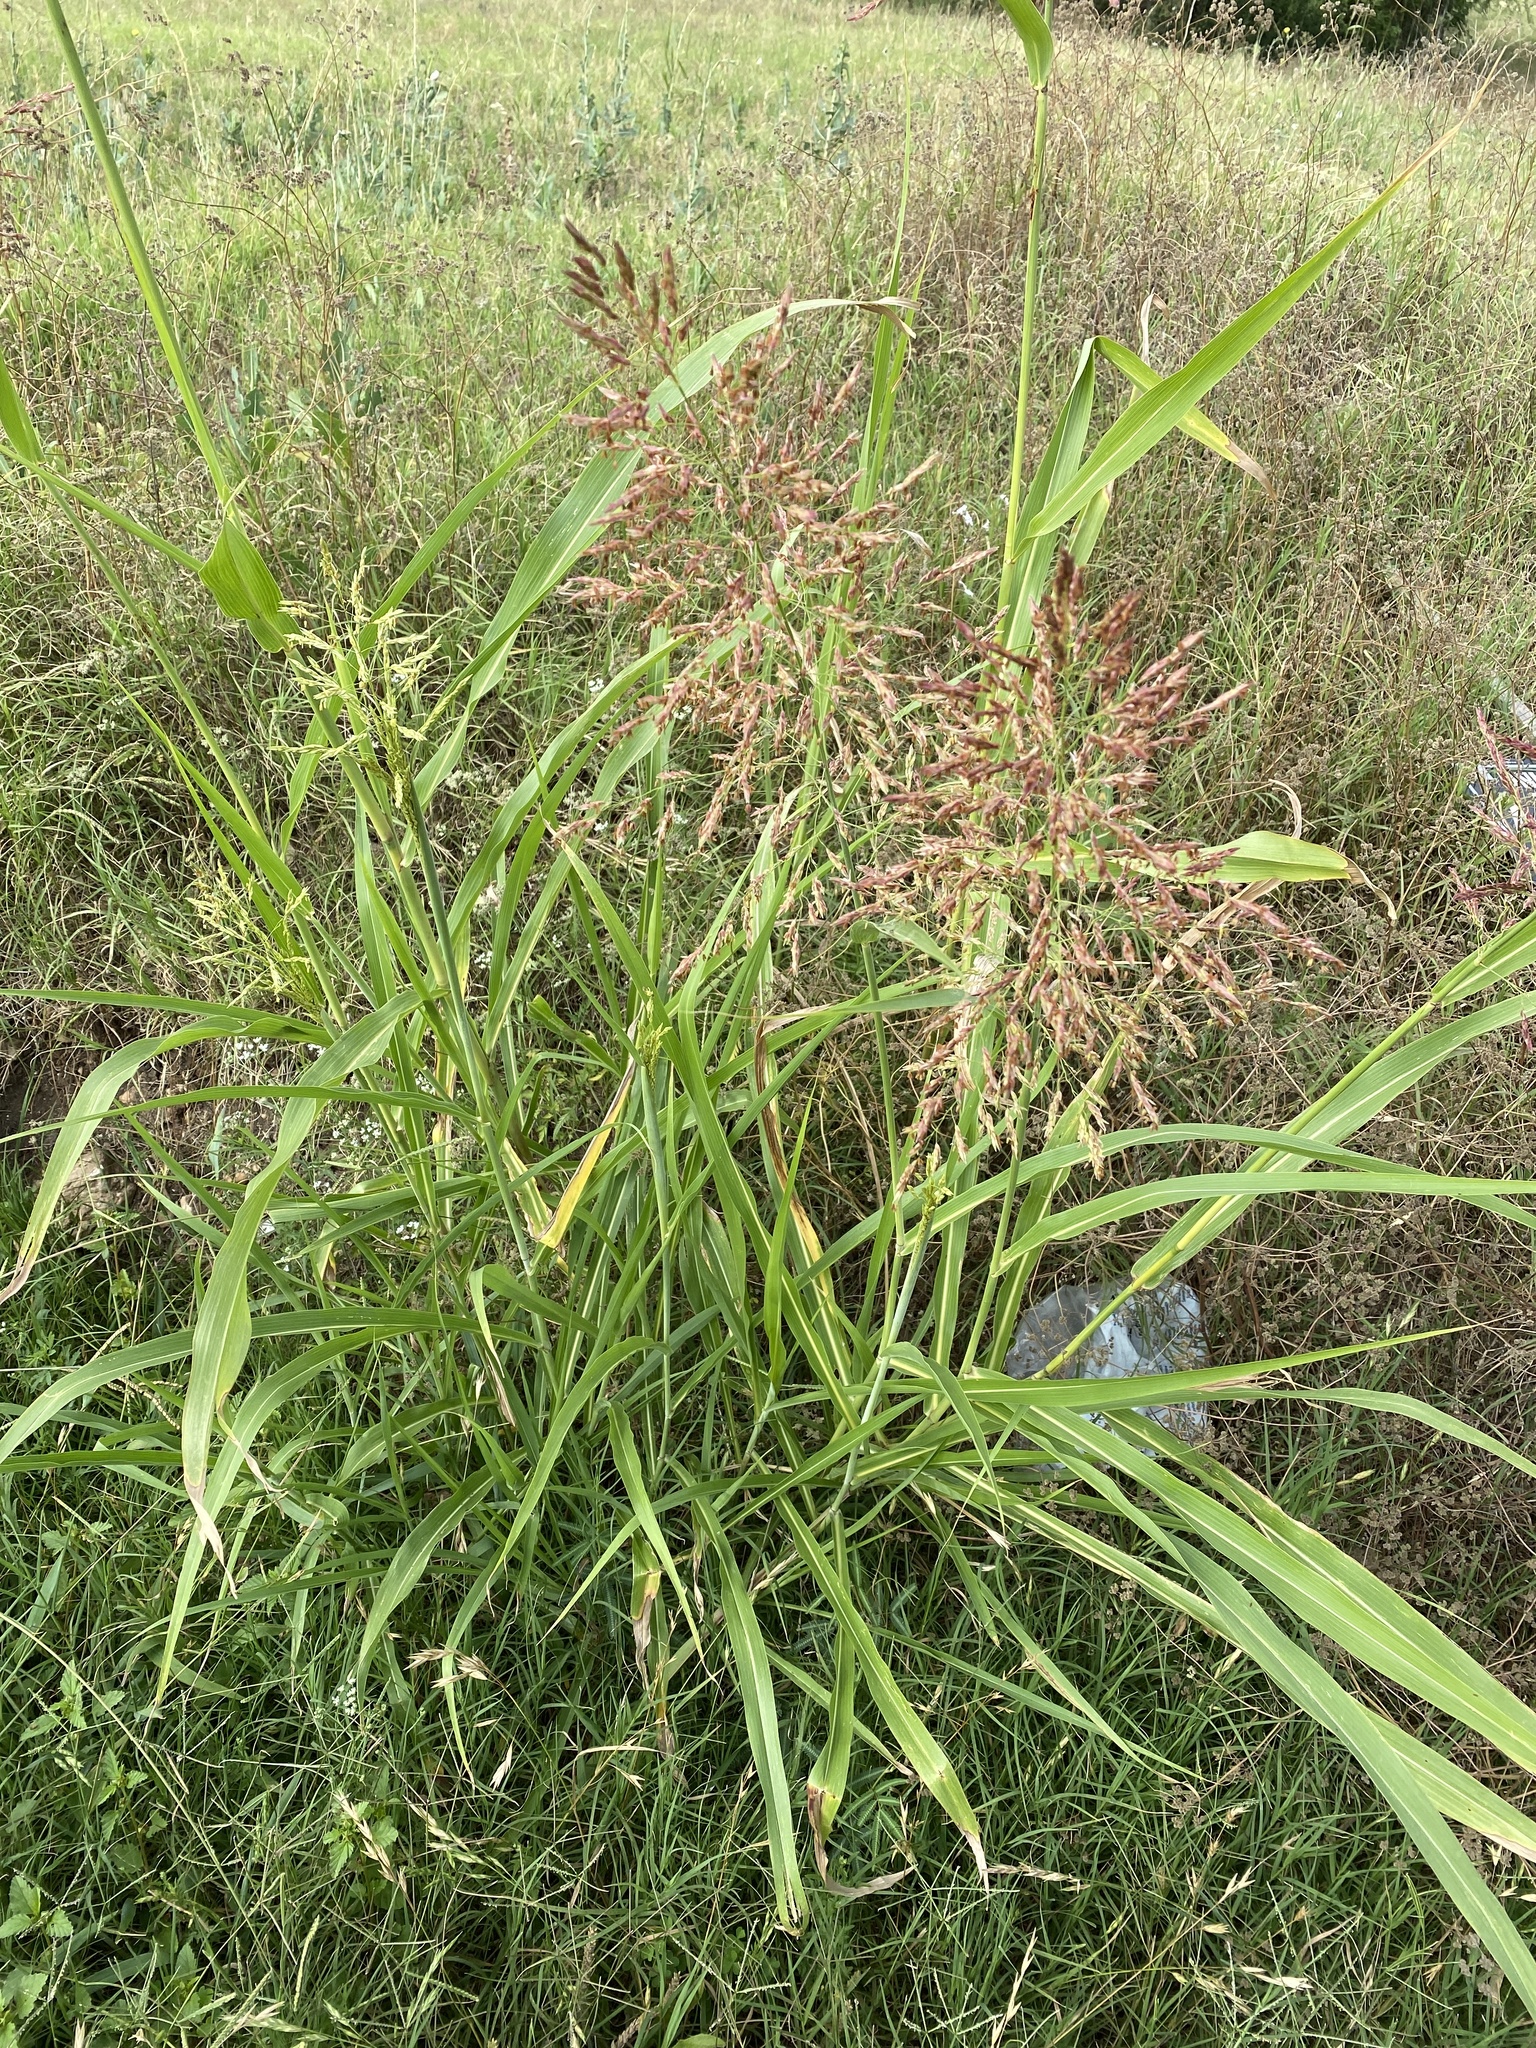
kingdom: Plantae
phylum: Tracheophyta
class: Liliopsida
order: Poales
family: Poaceae
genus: Sorghum
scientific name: Sorghum halepense
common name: Johnson-grass
